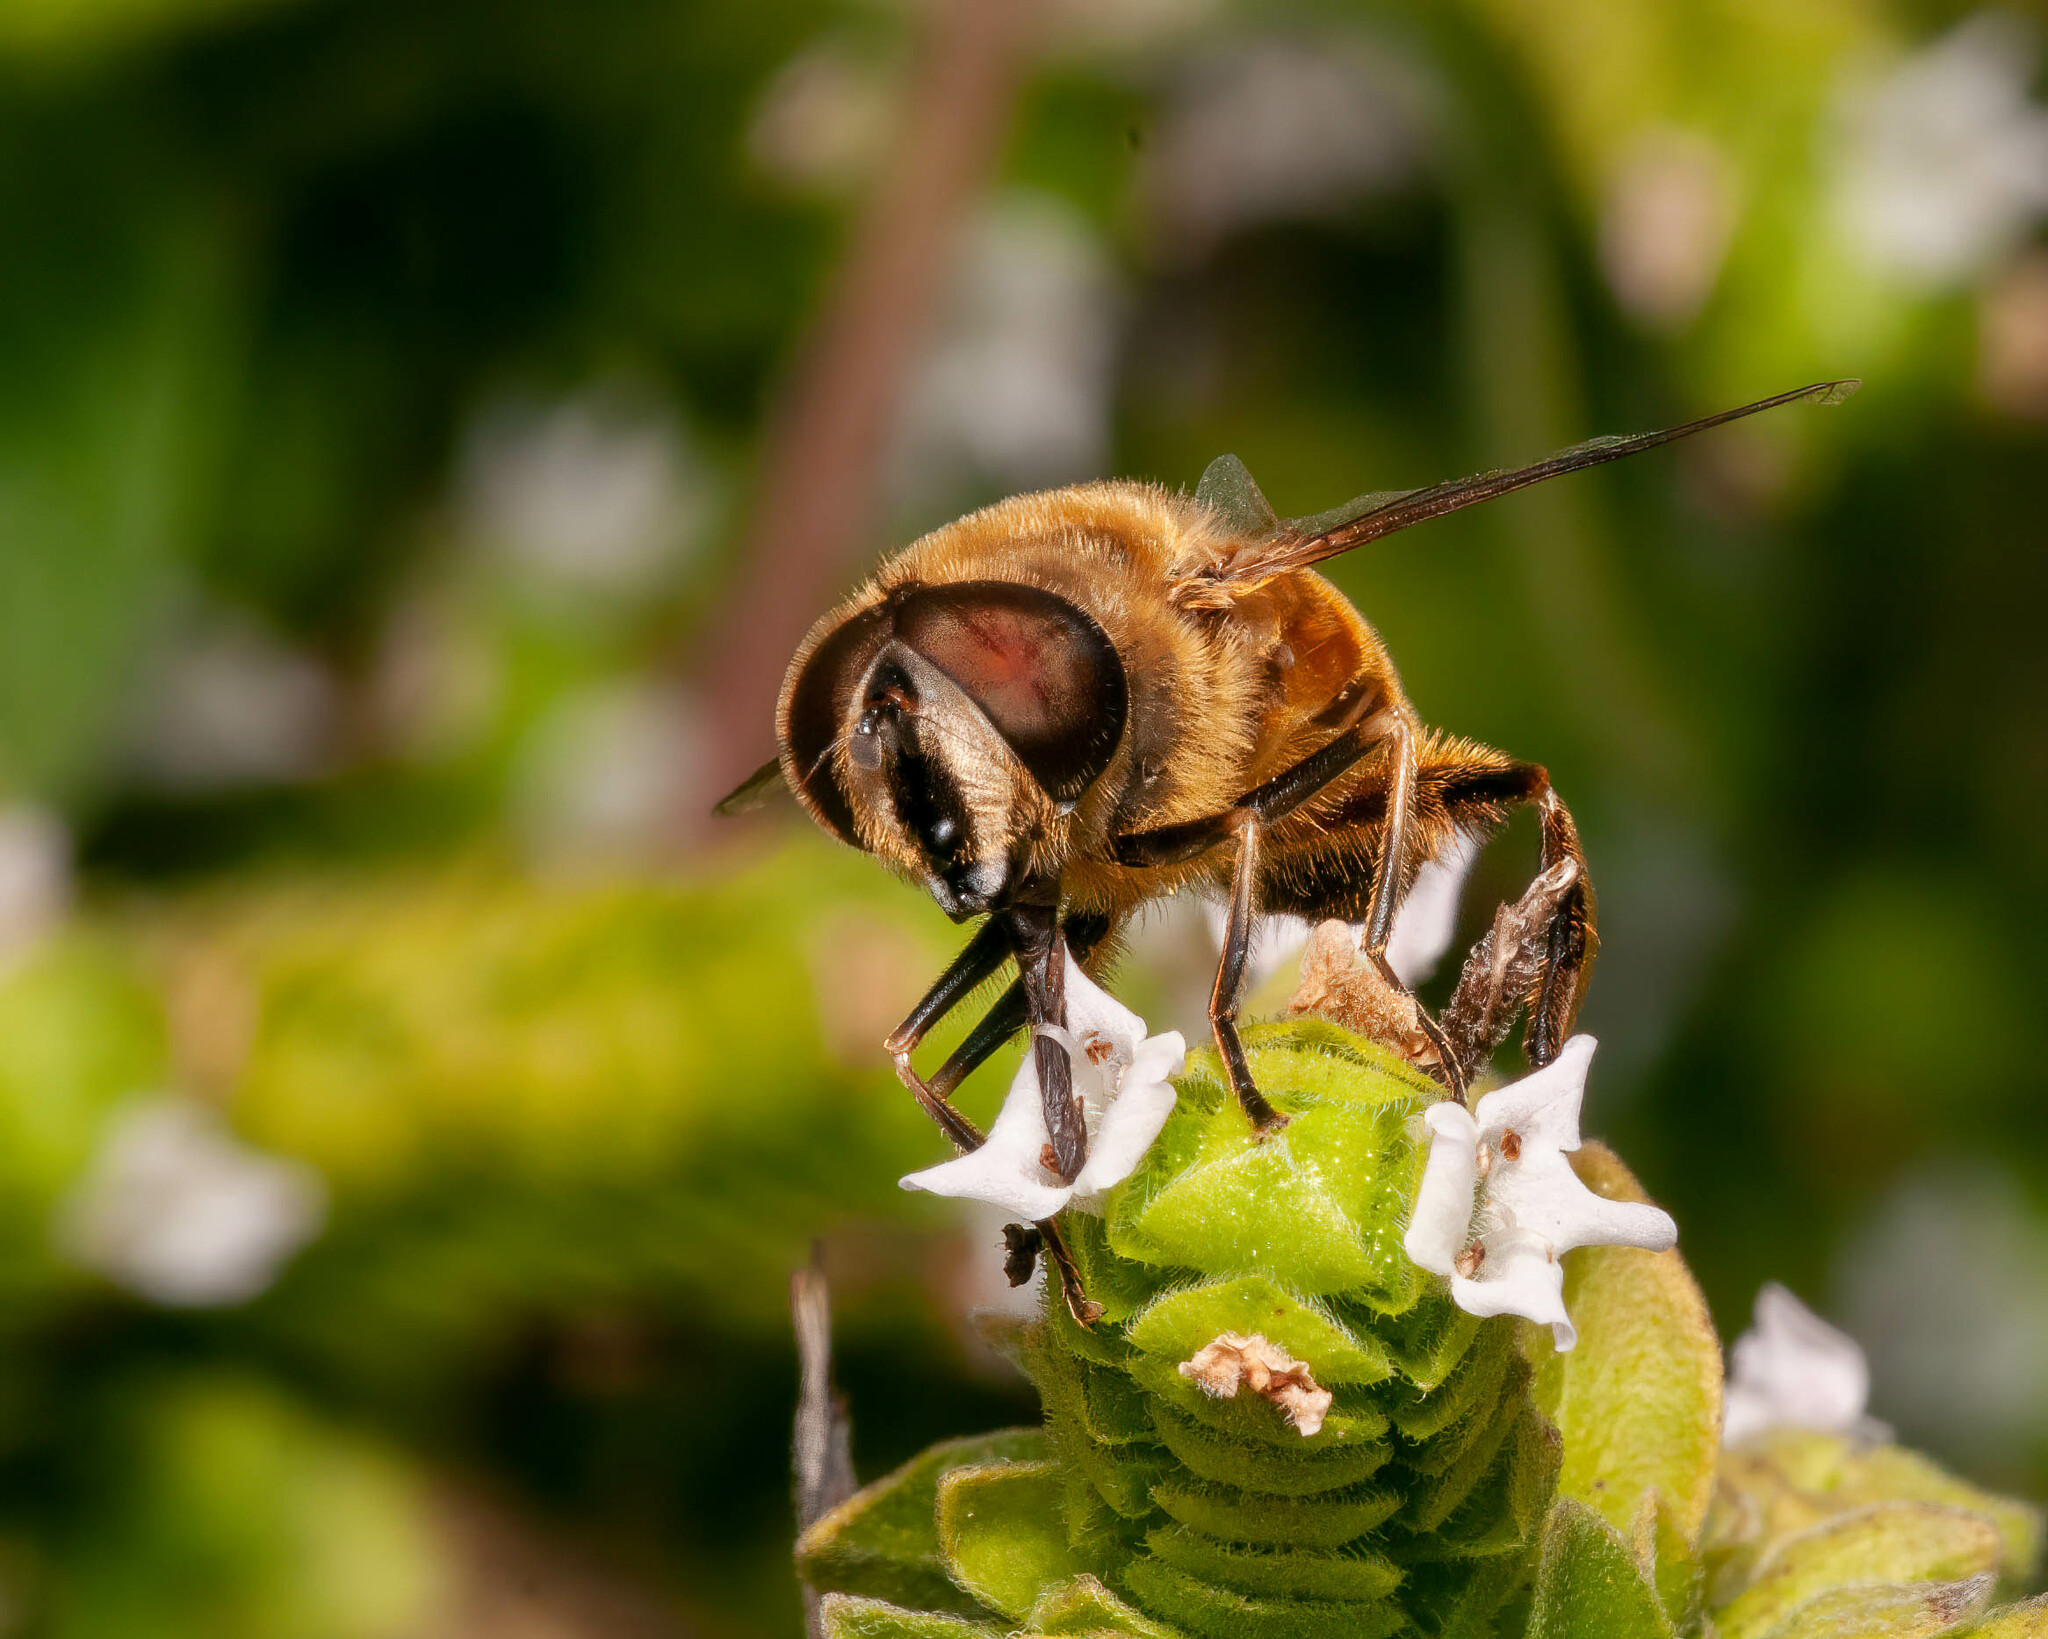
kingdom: Animalia
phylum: Arthropoda
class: Insecta
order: Diptera
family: Syrphidae
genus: Eristalis
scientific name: Eristalis tenax
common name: Drone fly
